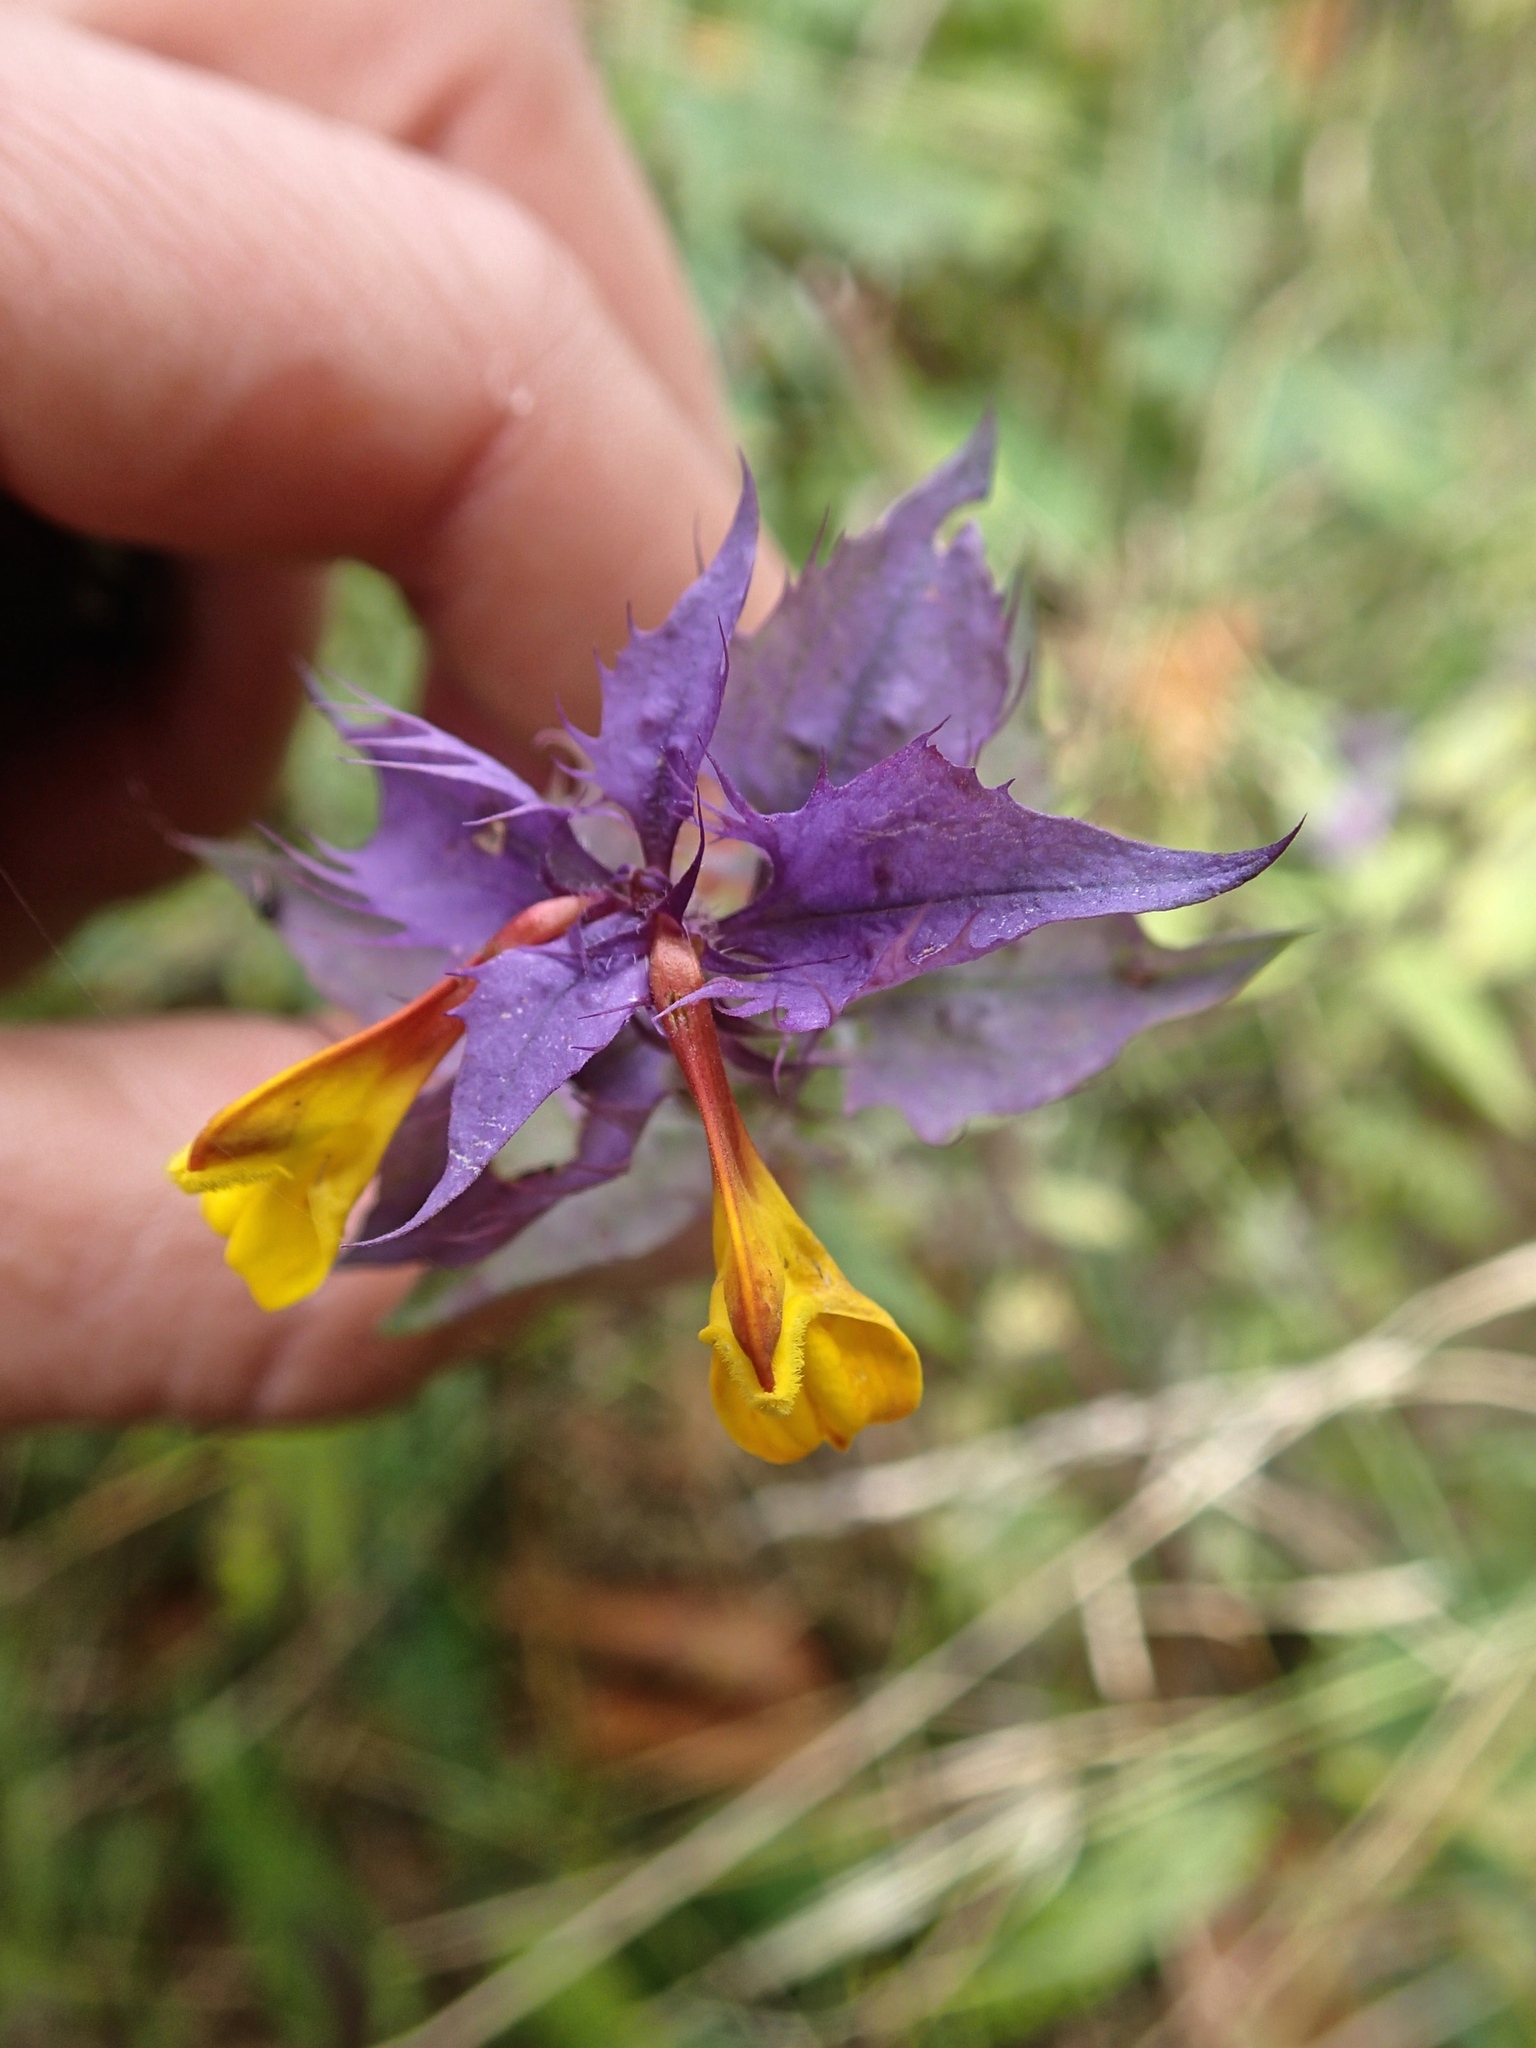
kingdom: Plantae
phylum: Tracheophyta
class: Magnoliopsida
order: Lamiales
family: Orobanchaceae
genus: Melampyrum
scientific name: Melampyrum nemorosum
